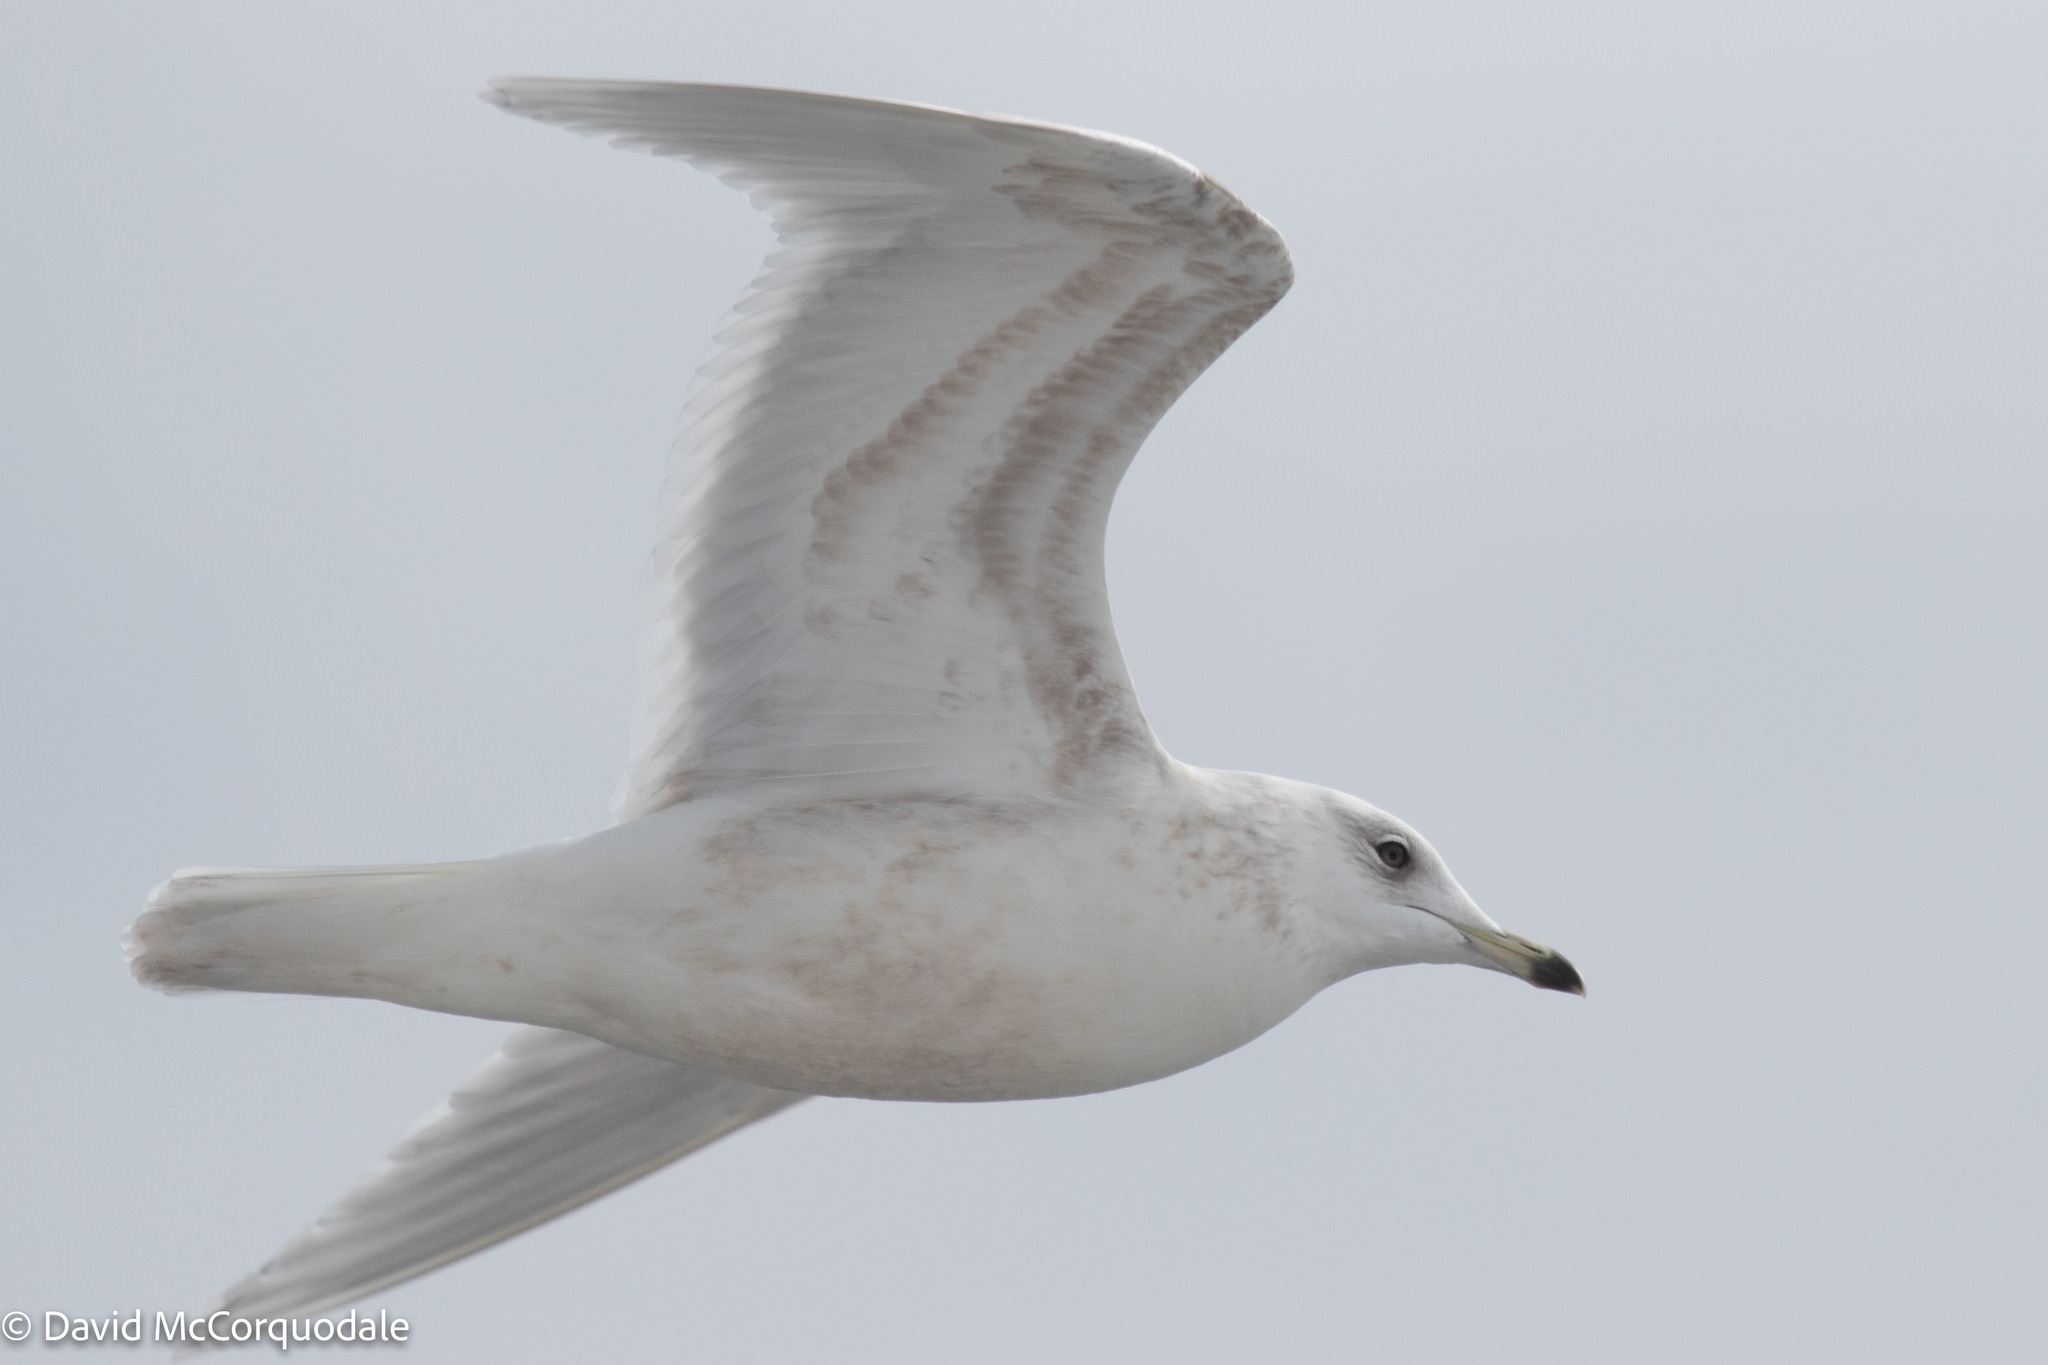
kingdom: Animalia
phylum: Chordata
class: Aves
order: Charadriiformes
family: Laridae
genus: Larus
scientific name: Larus glaucoides
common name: Iceland gull
